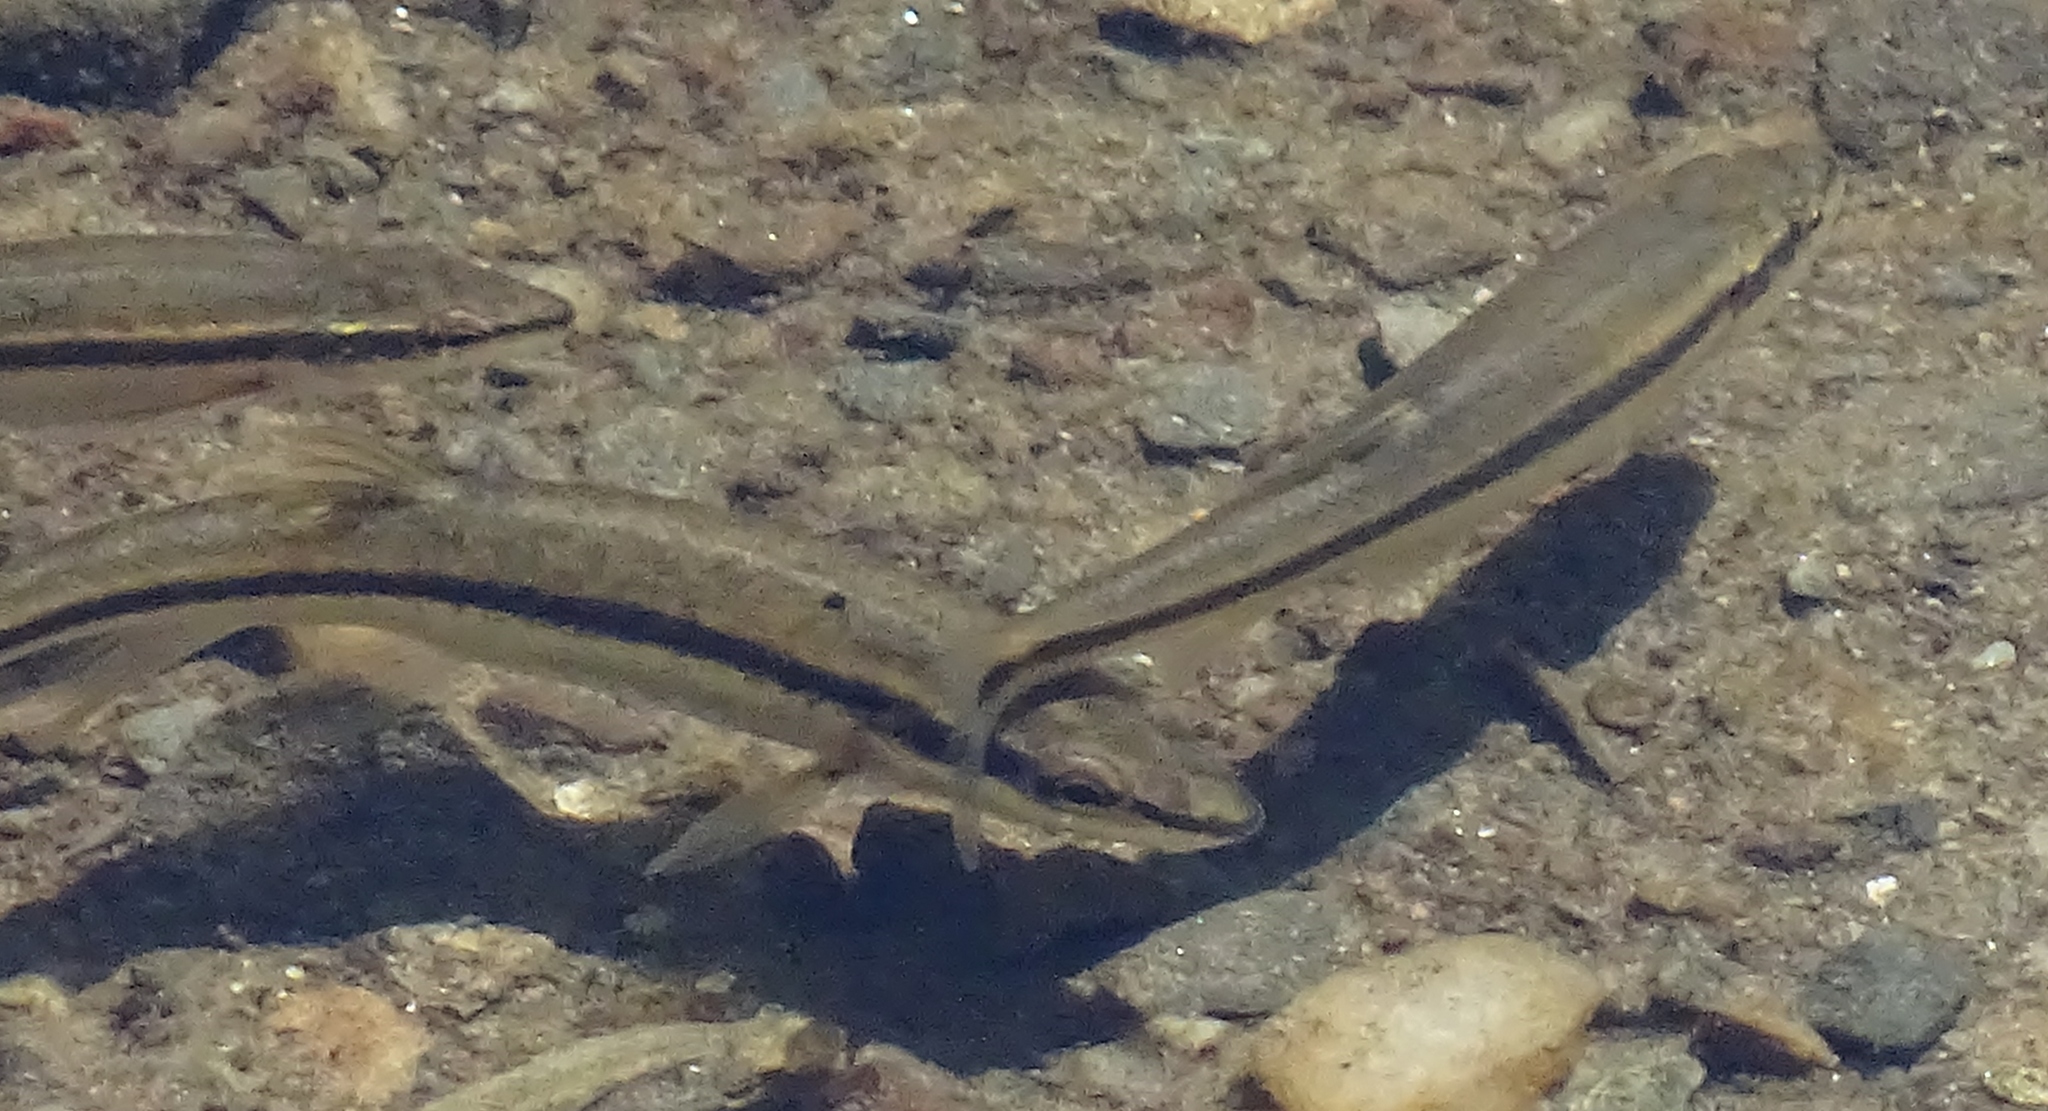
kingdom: Animalia
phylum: Chordata
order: Cypriniformes
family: Cyprinidae
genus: Rhinichthys
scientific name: Rhinichthys atratulus
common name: Eastern blacknose dace
